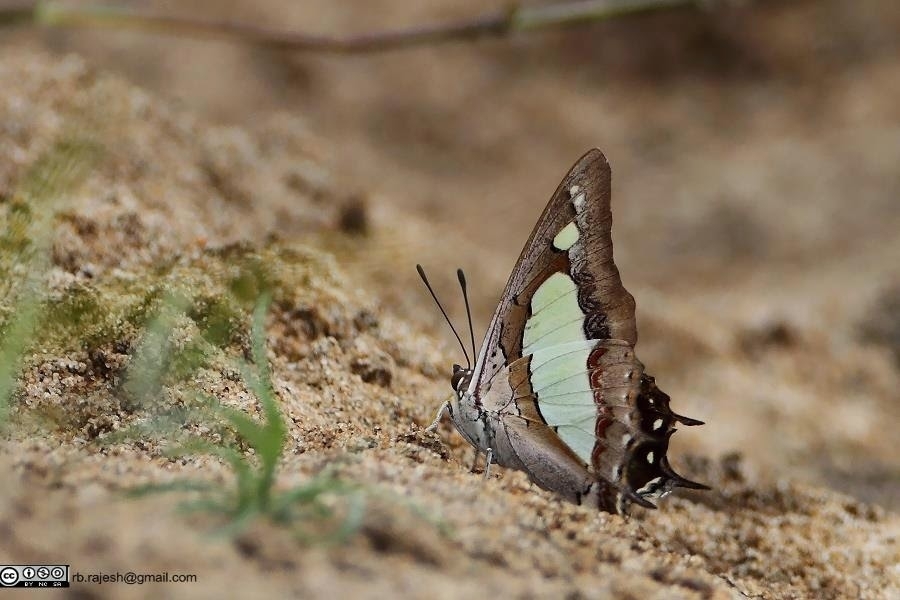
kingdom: Animalia
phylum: Arthropoda
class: Insecta
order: Lepidoptera
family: Nymphalidae
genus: Polyura
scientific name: Polyura agrarius
